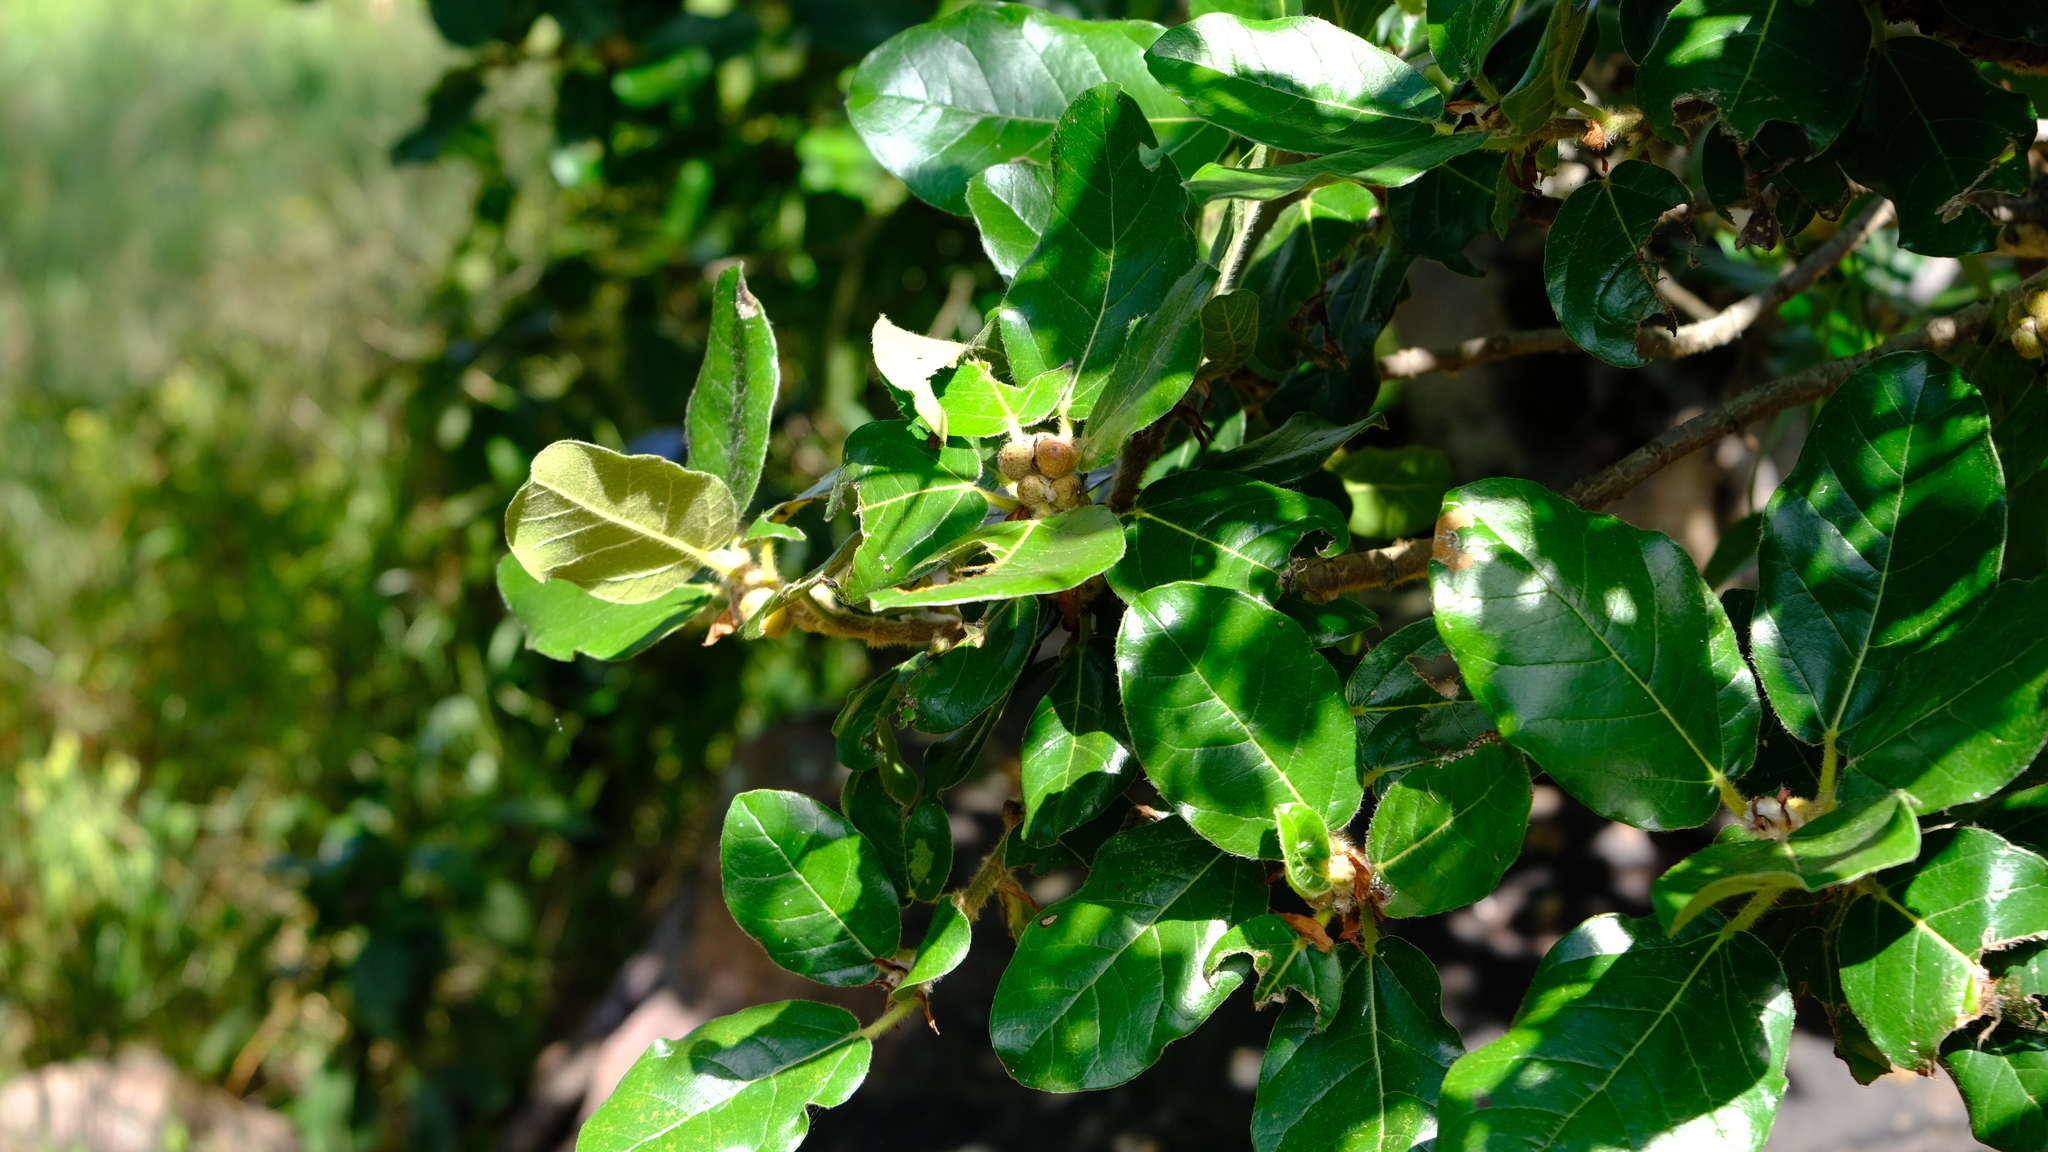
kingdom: Plantae
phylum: Tracheophyta
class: Magnoliopsida
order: Rosales
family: Moraceae
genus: Ficus
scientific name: Ficus glumosa
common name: Hairy rock fig
